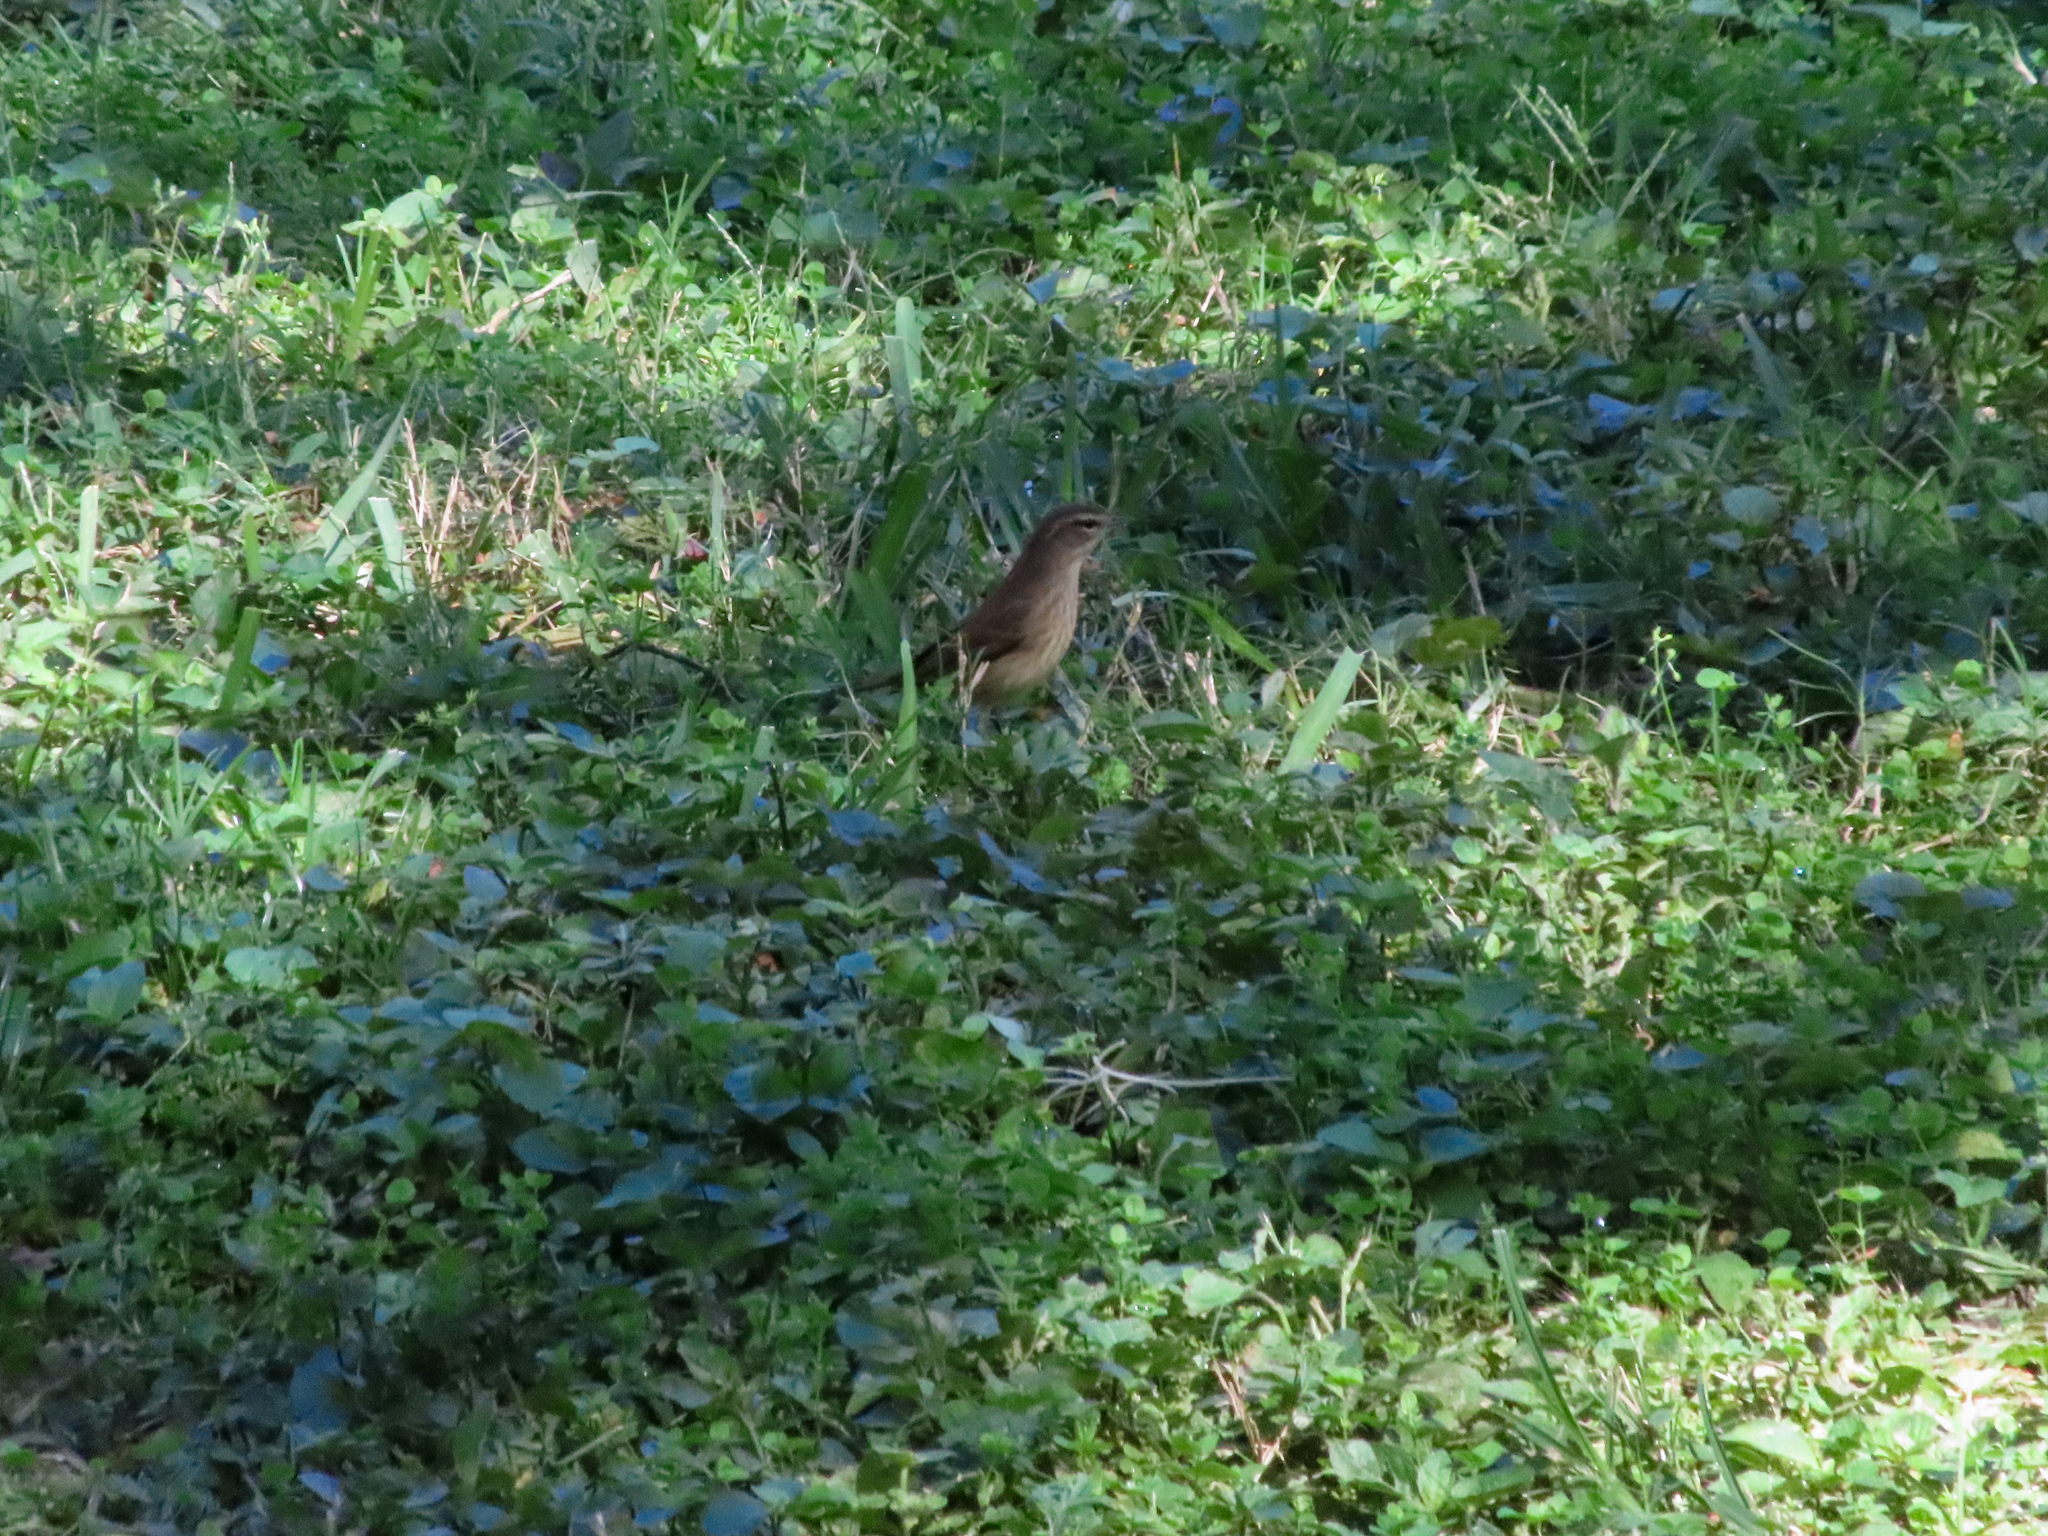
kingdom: Animalia
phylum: Chordata
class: Aves
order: Passeriformes
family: Parulidae
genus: Setophaga
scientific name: Setophaga palmarum
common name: Palm warbler
